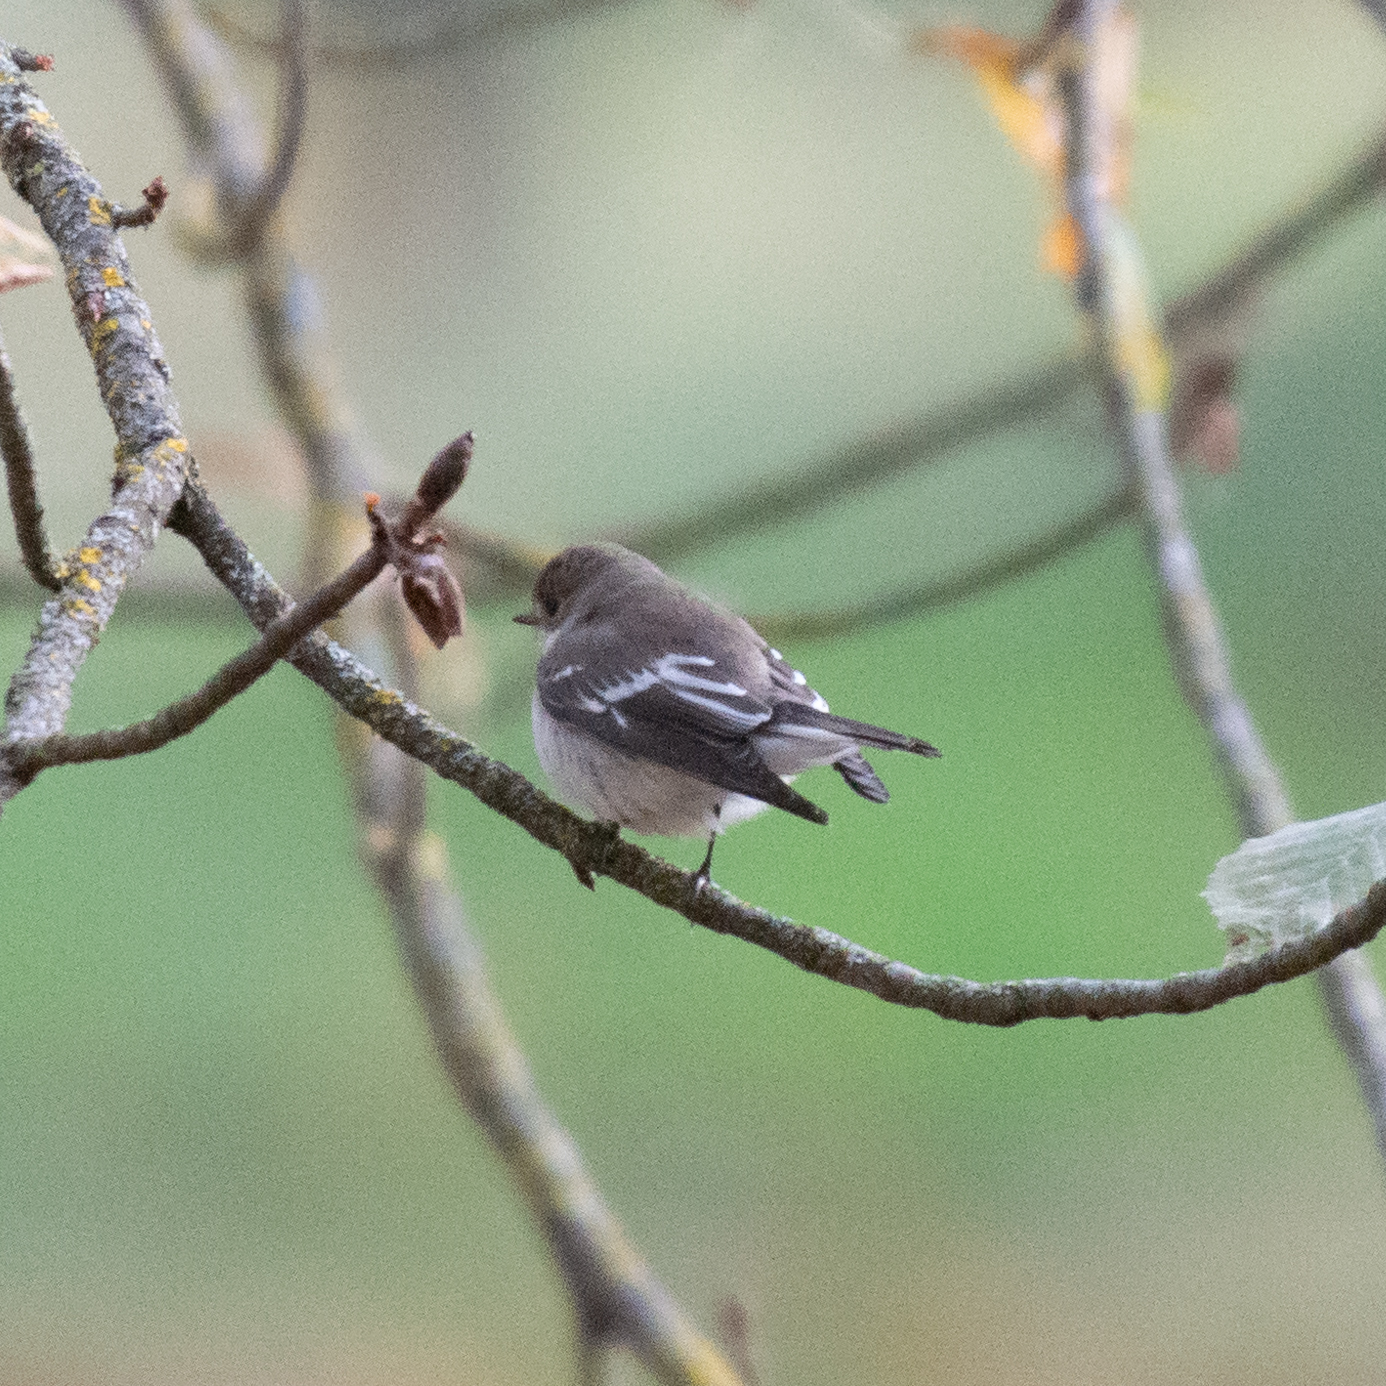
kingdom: Animalia
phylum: Chordata
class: Aves
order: Passeriformes
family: Muscicapidae
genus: Ficedula
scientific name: Ficedula hypoleuca
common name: European pied flycatcher
